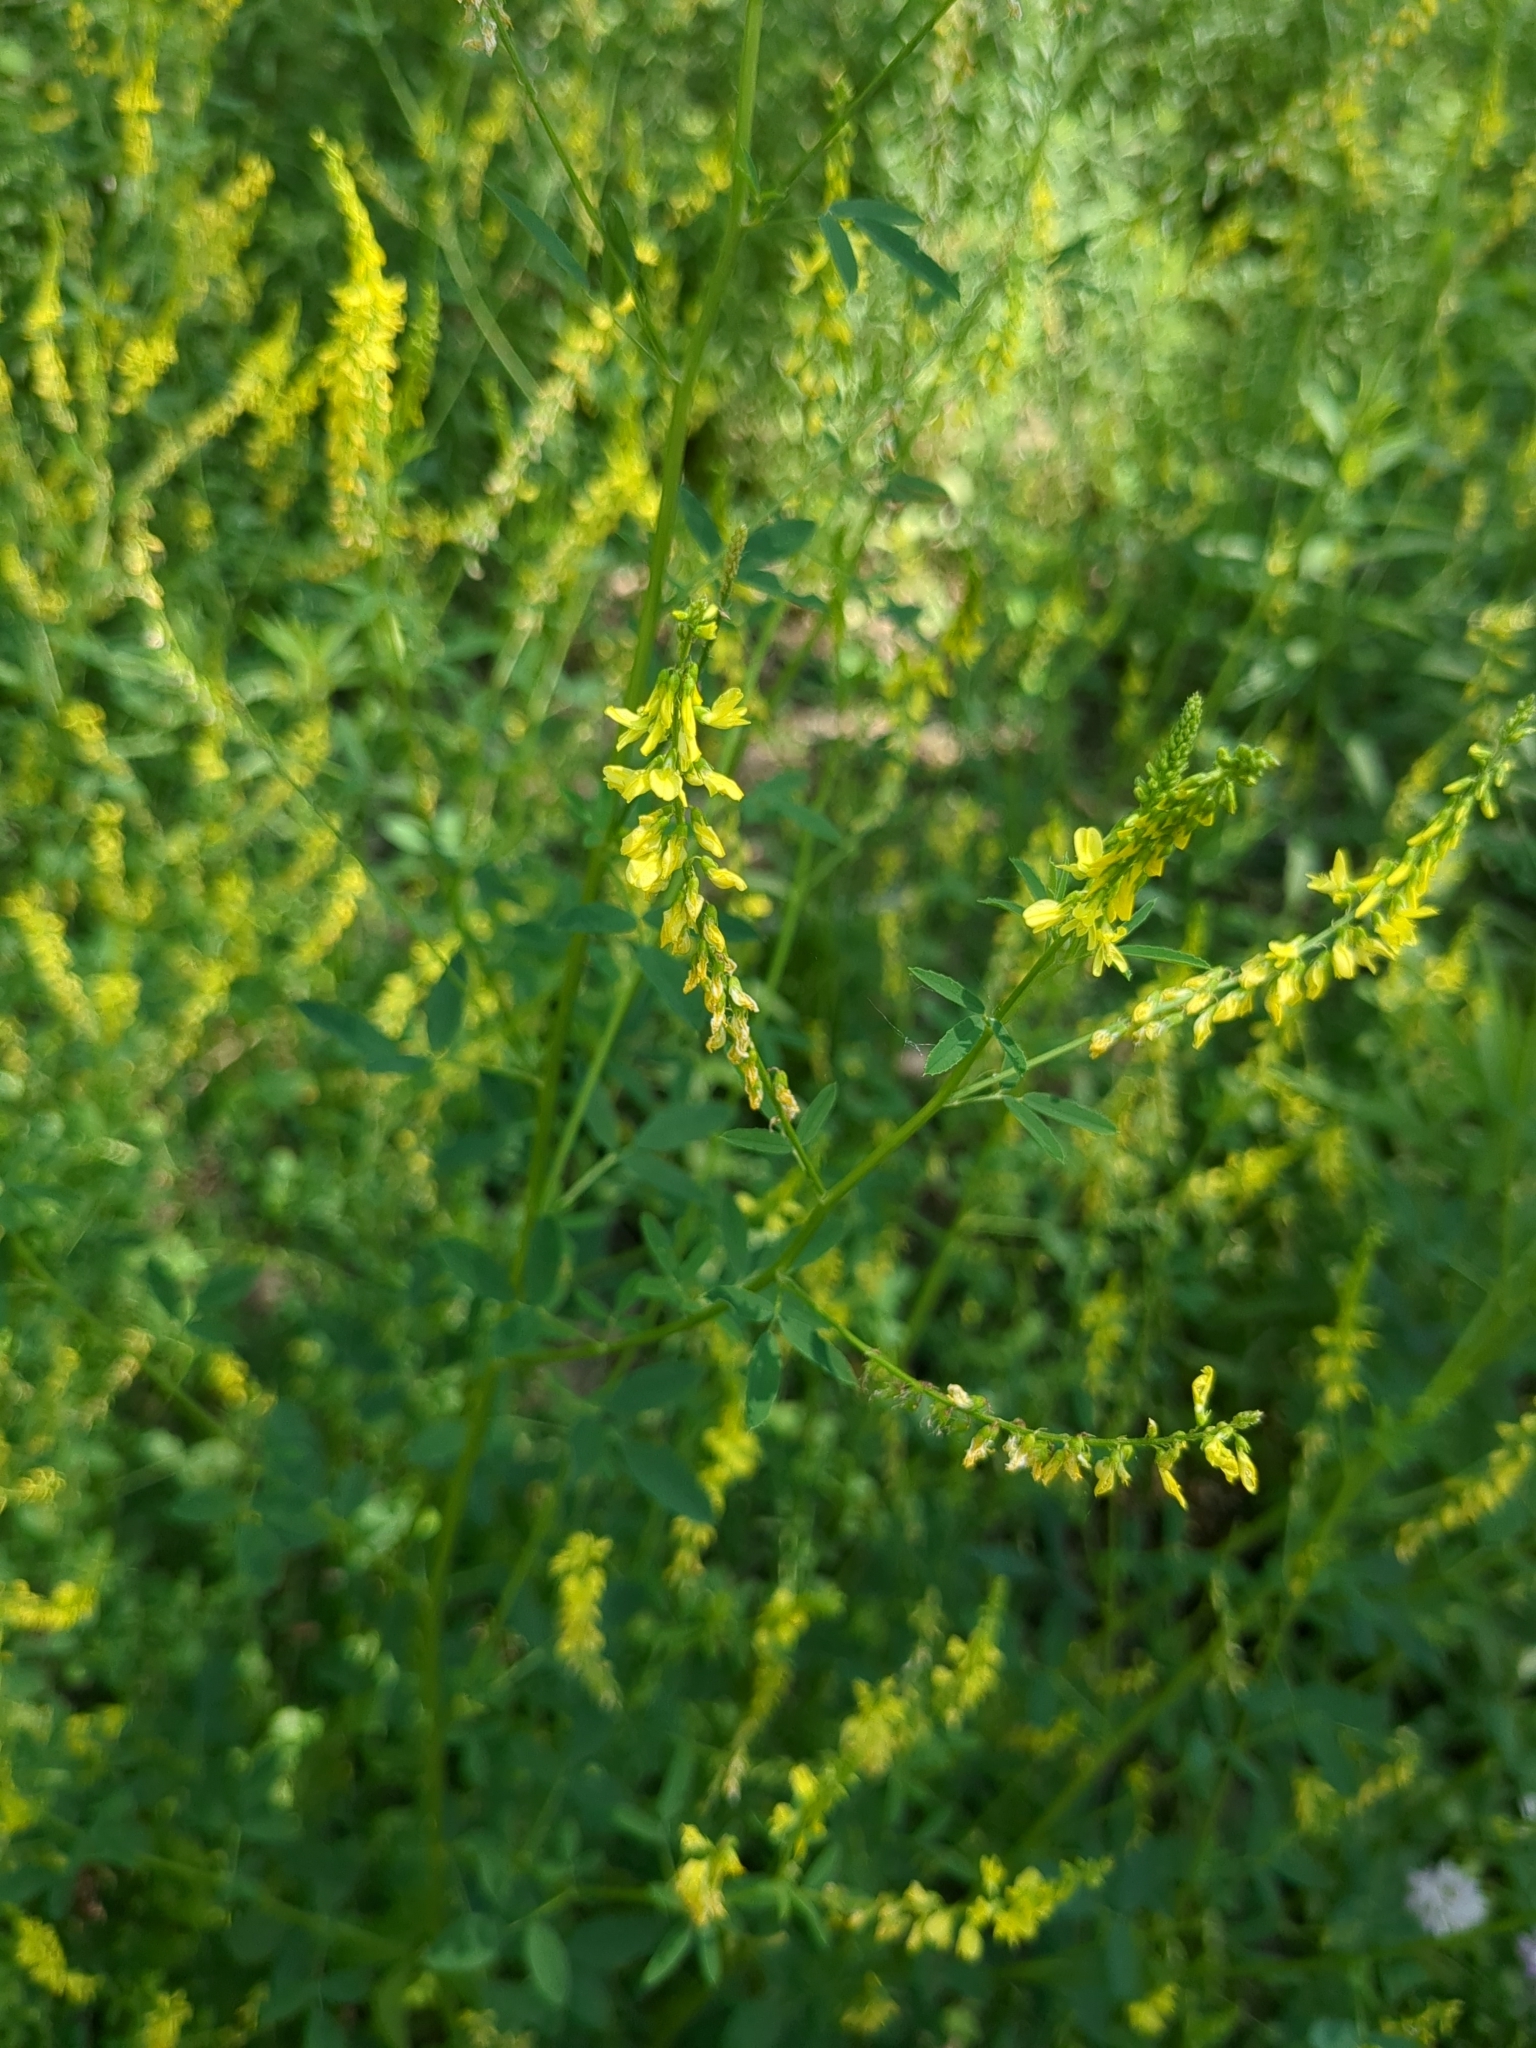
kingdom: Plantae
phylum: Tracheophyta
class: Magnoliopsida
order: Fabales
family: Fabaceae
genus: Melilotus
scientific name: Melilotus officinalis
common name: Sweetclover
